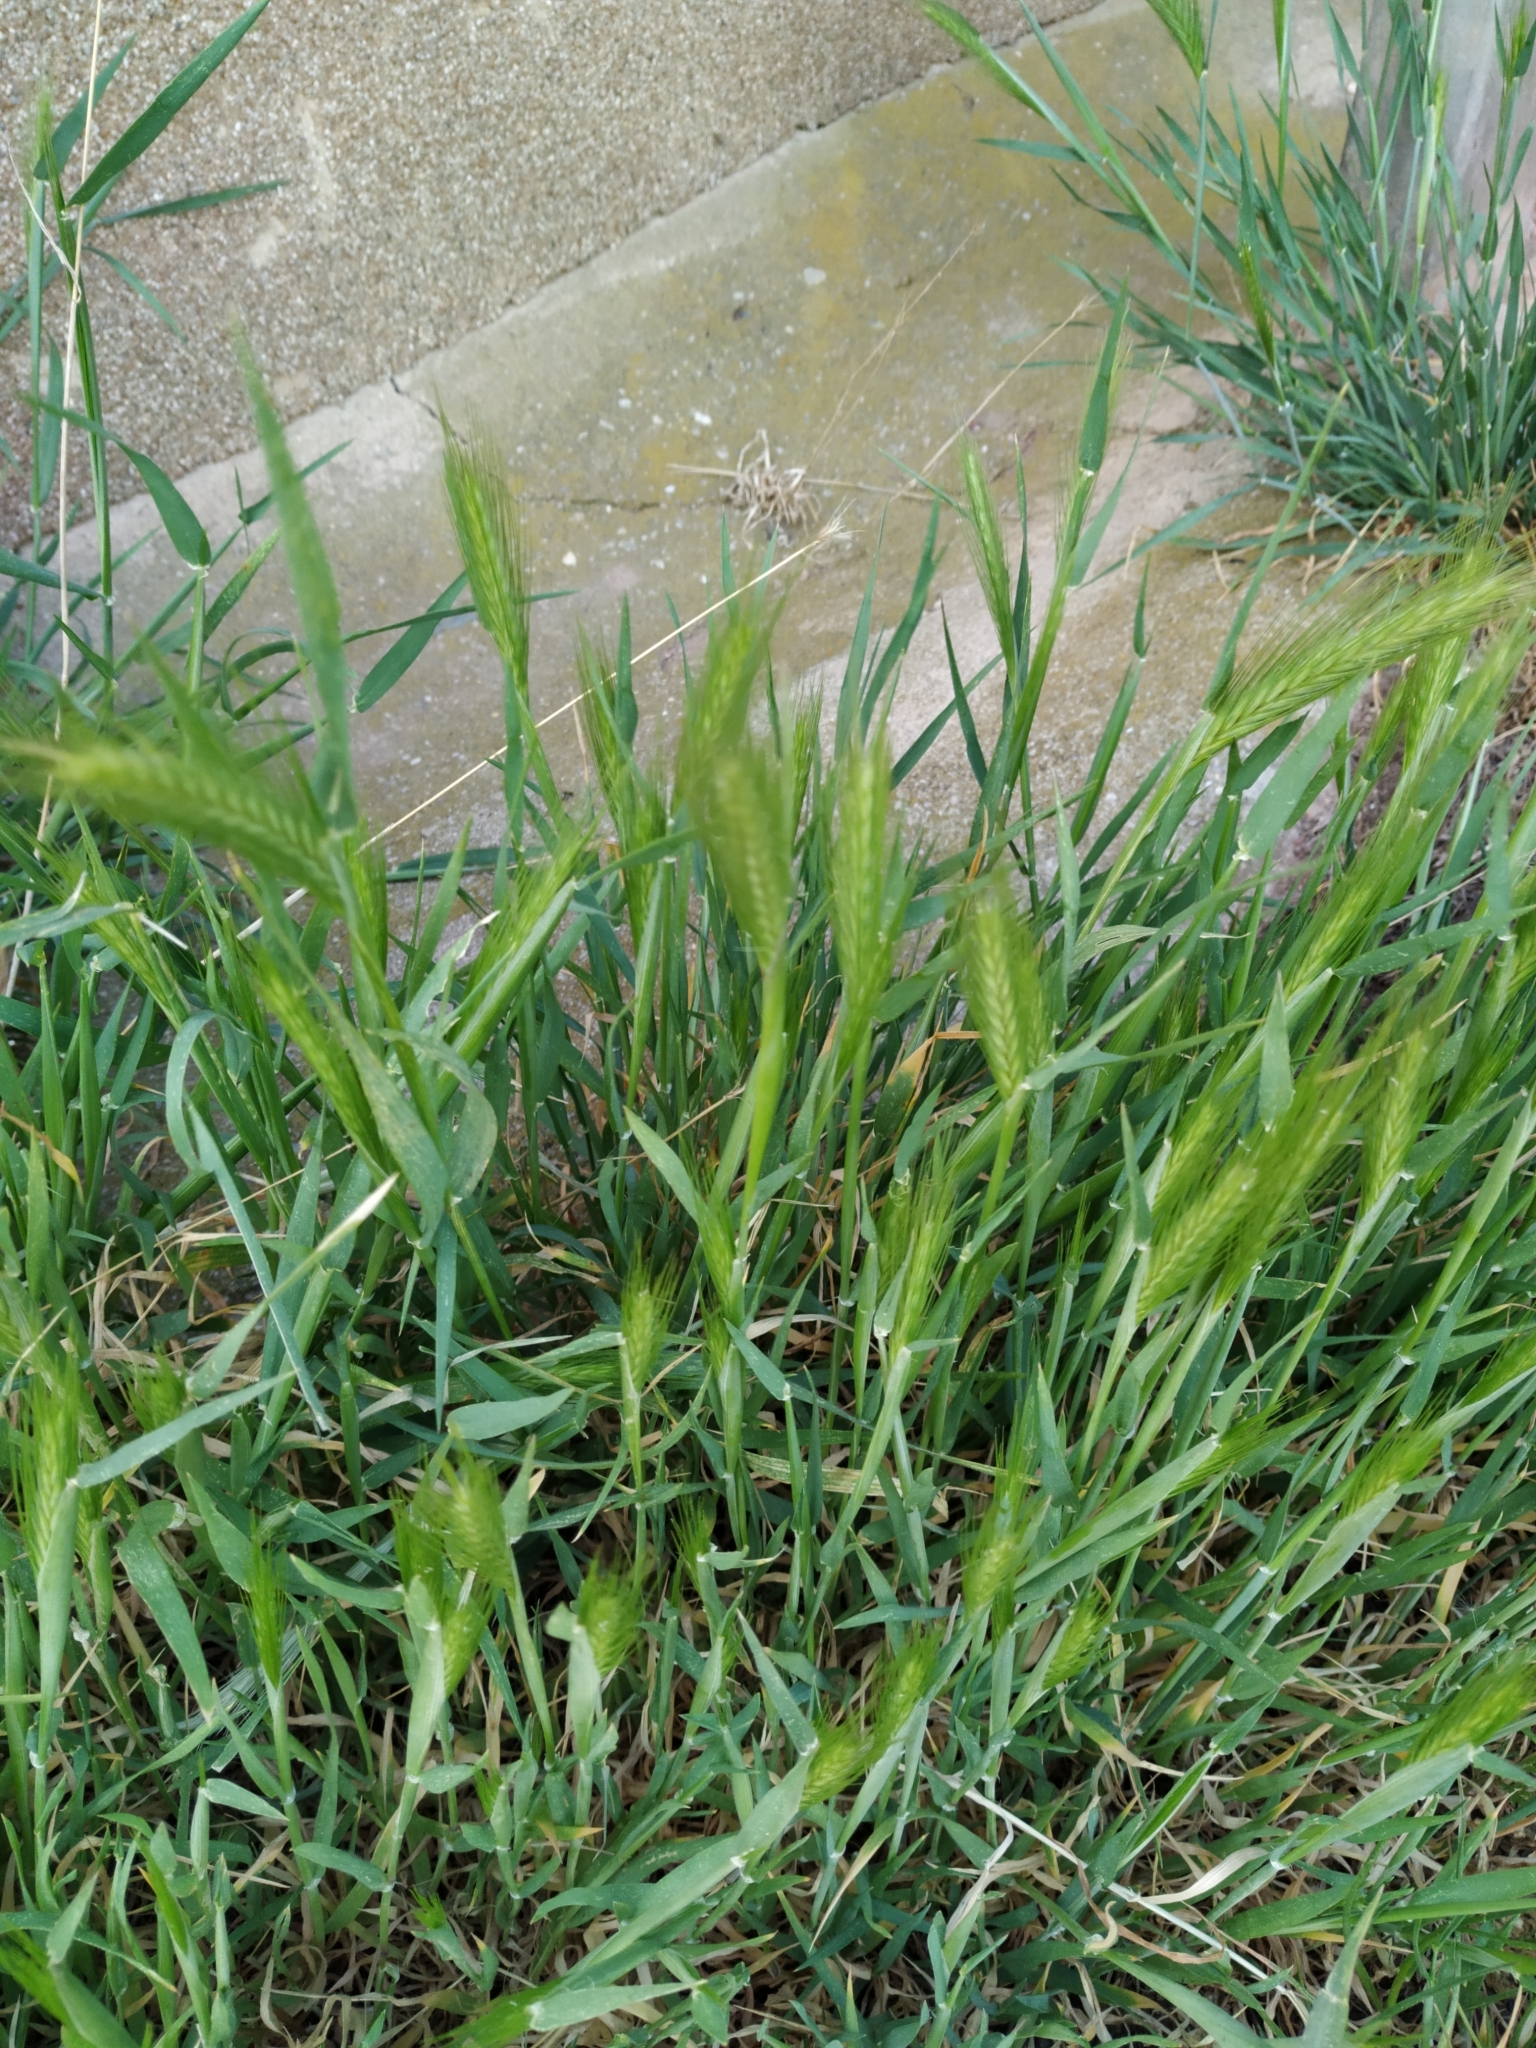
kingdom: Plantae
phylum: Tracheophyta
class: Liliopsida
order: Poales
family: Poaceae
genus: Hordeum
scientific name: Hordeum murinum
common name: Wall barley
